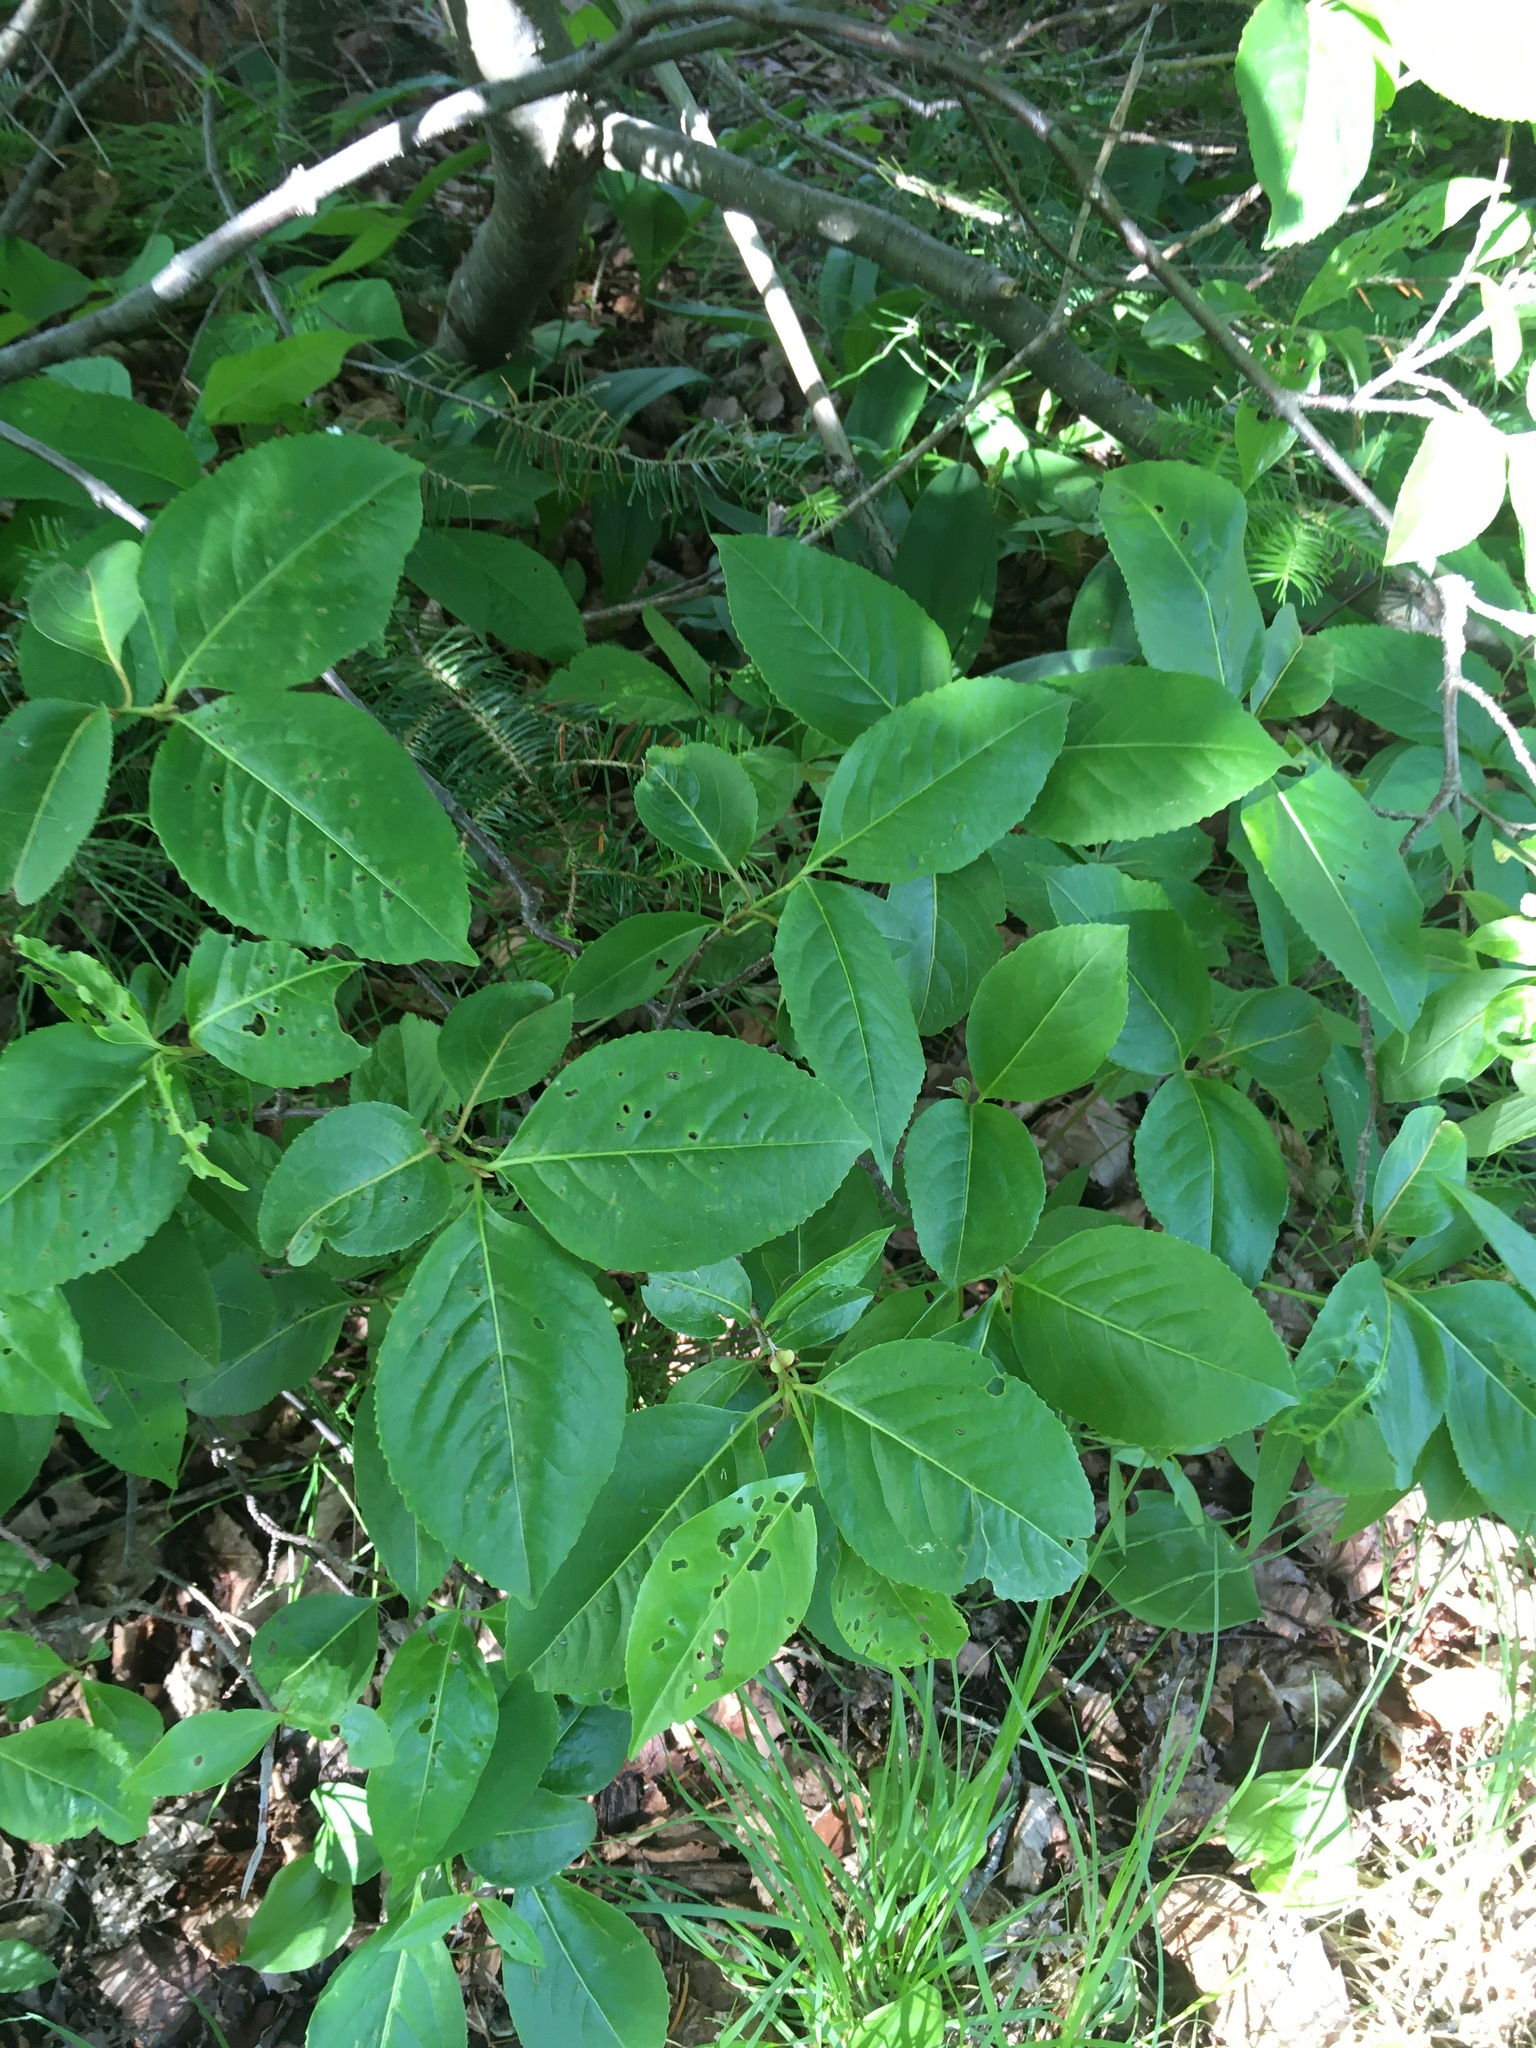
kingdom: Plantae
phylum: Tracheophyta
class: Magnoliopsida
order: Dipsacales
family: Viburnaceae
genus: Viburnum
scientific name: Viburnum cassinoides
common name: Swamp haw
